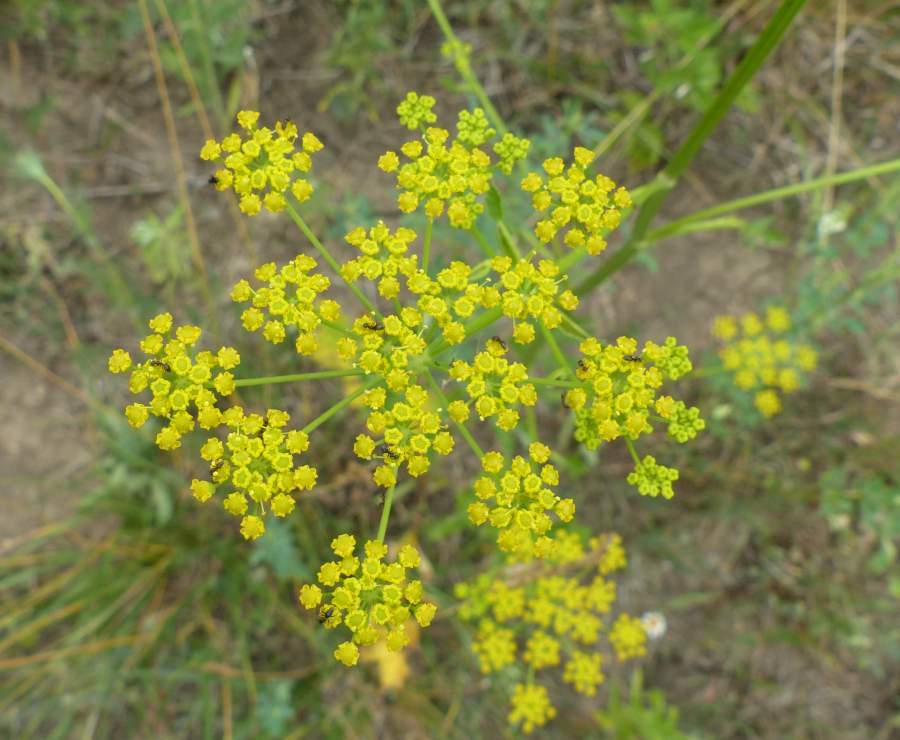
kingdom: Plantae
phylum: Tracheophyta
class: Magnoliopsida
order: Apiales
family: Apiaceae
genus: Pastinaca
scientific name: Pastinaca sativa
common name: Wild parsnip
